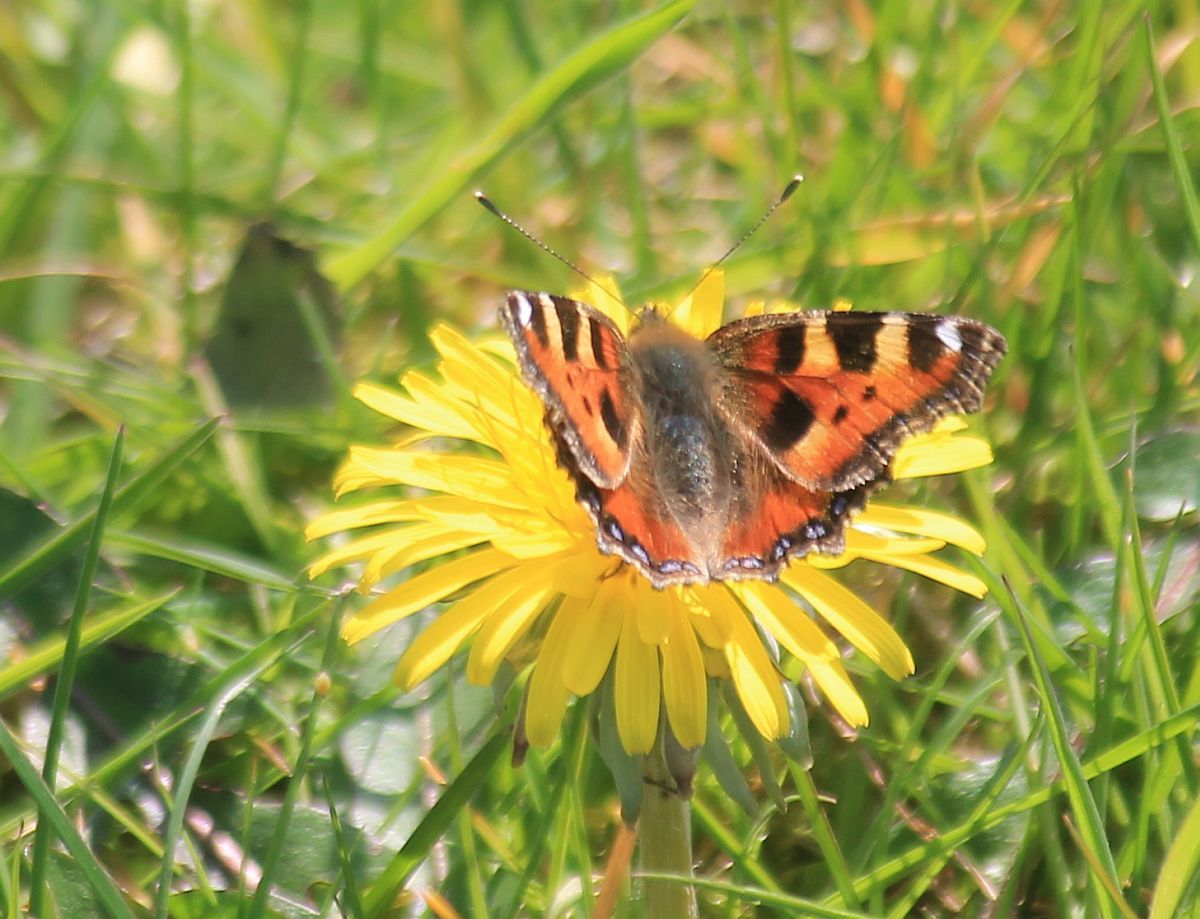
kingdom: Animalia
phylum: Arthropoda
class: Insecta
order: Lepidoptera
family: Nymphalidae
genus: Aglais
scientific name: Aglais urticae
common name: Small tortoiseshell
